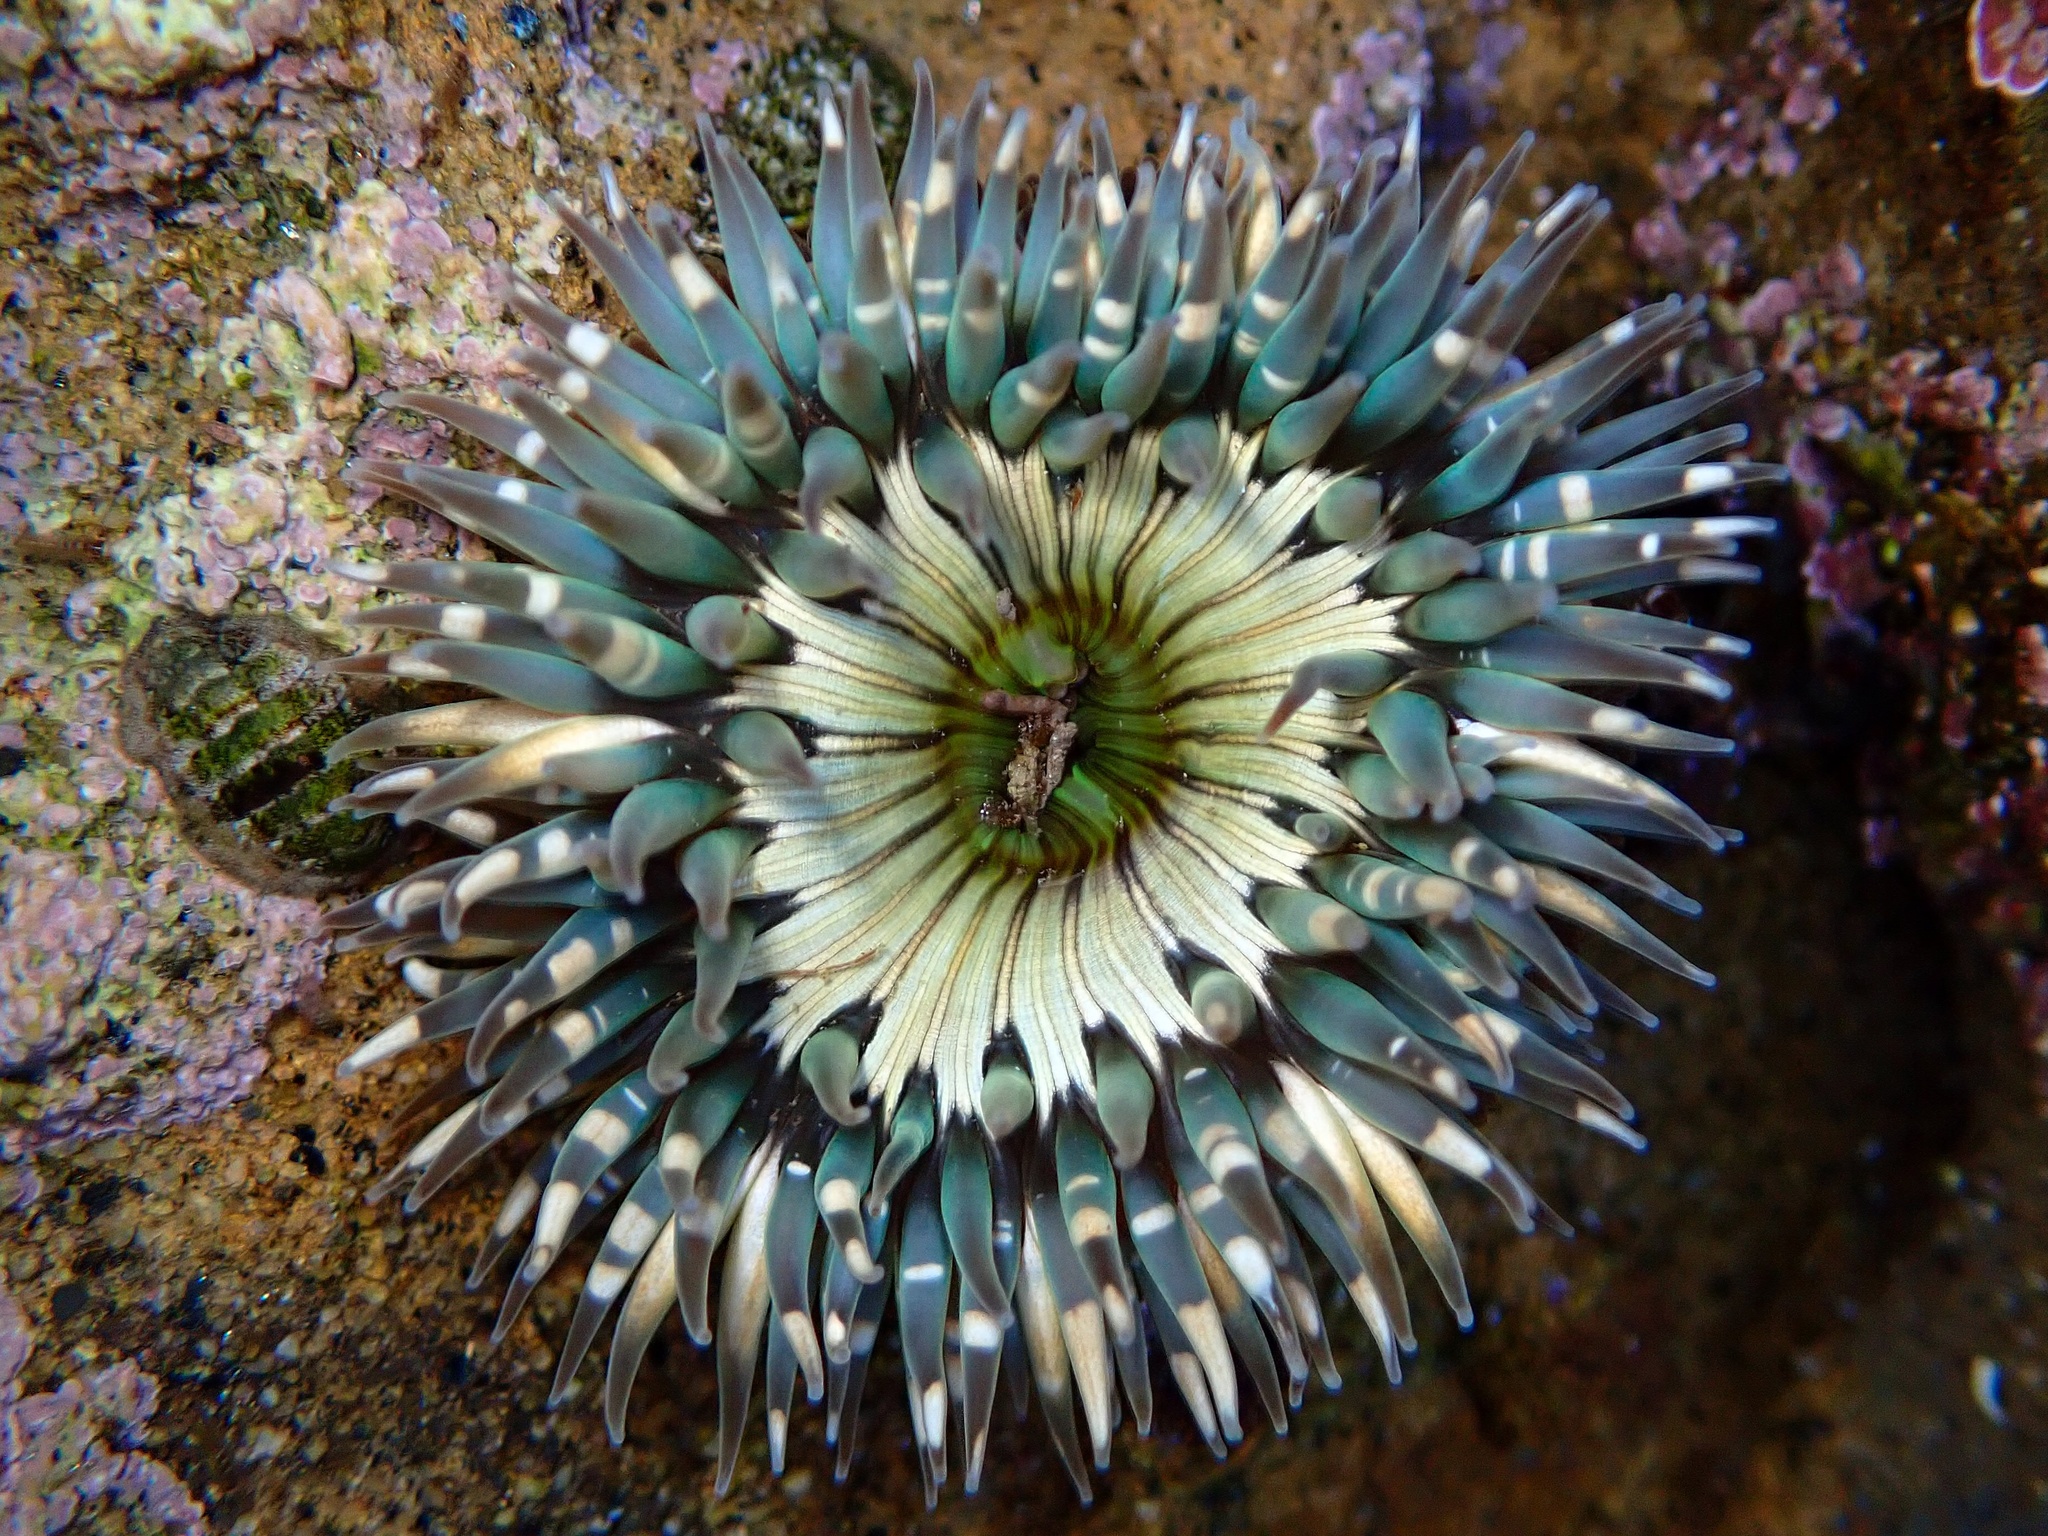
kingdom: Animalia
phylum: Cnidaria
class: Anthozoa
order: Actiniaria
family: Actiniidae
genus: Anthopleura
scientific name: Anthopleura sola
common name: Sun anemone
